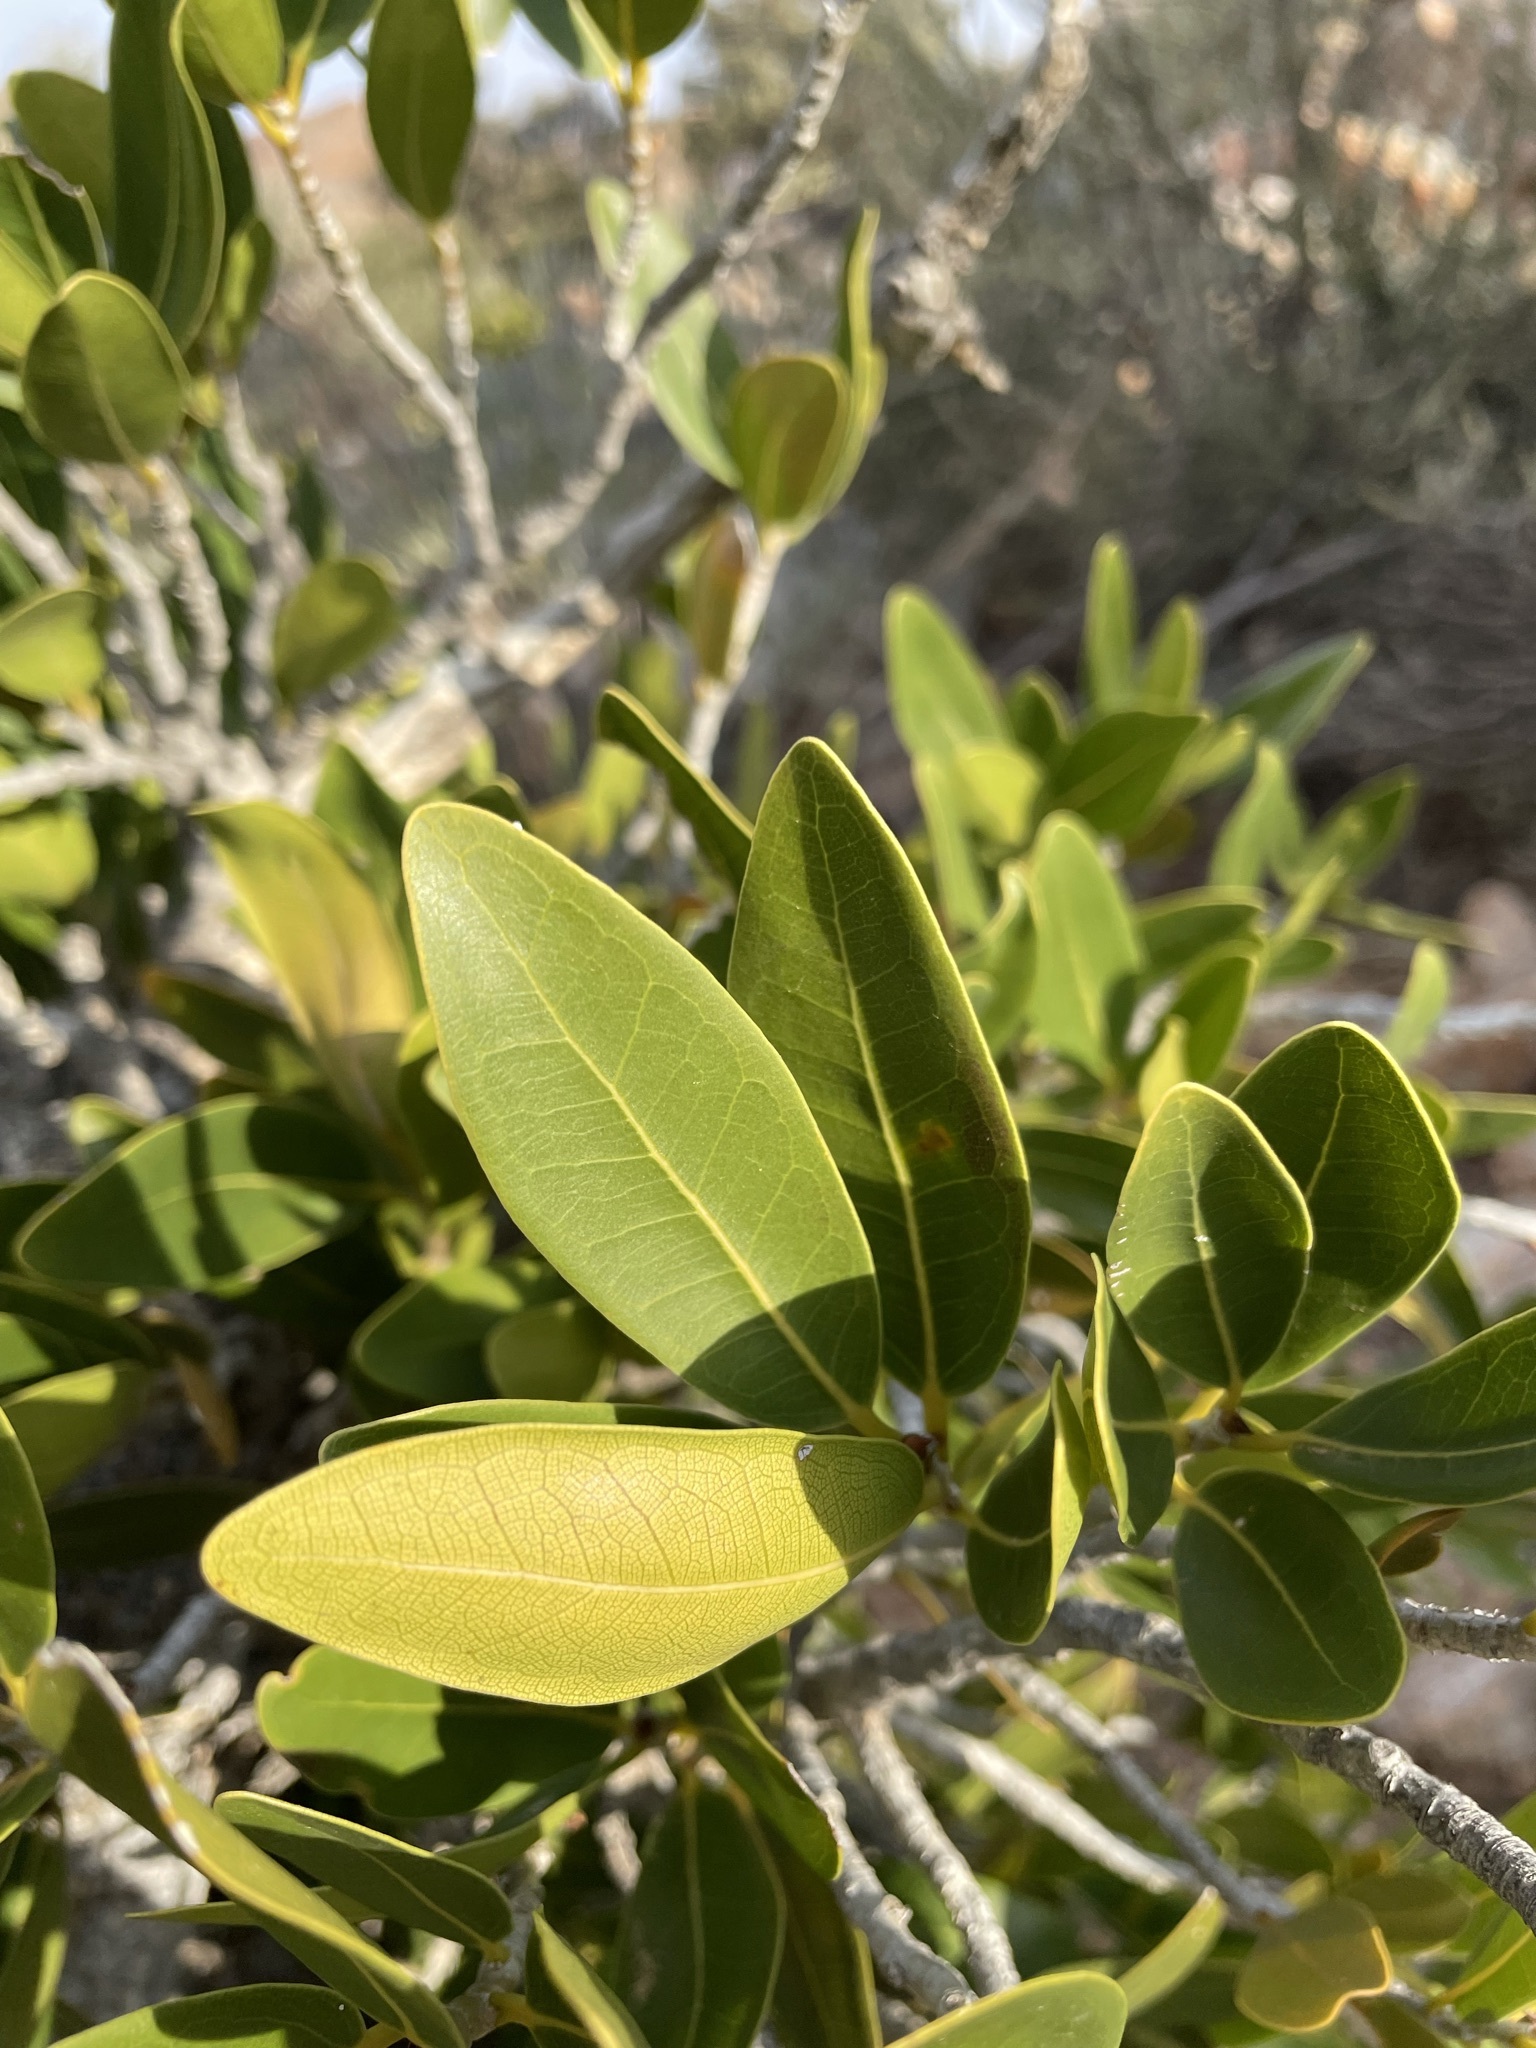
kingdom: Plantae
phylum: Tracheophyta
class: Magnoliopsida
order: Rosales
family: Moraceae
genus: Ficus
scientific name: Ficus ilicina
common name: Laurel rock fig
